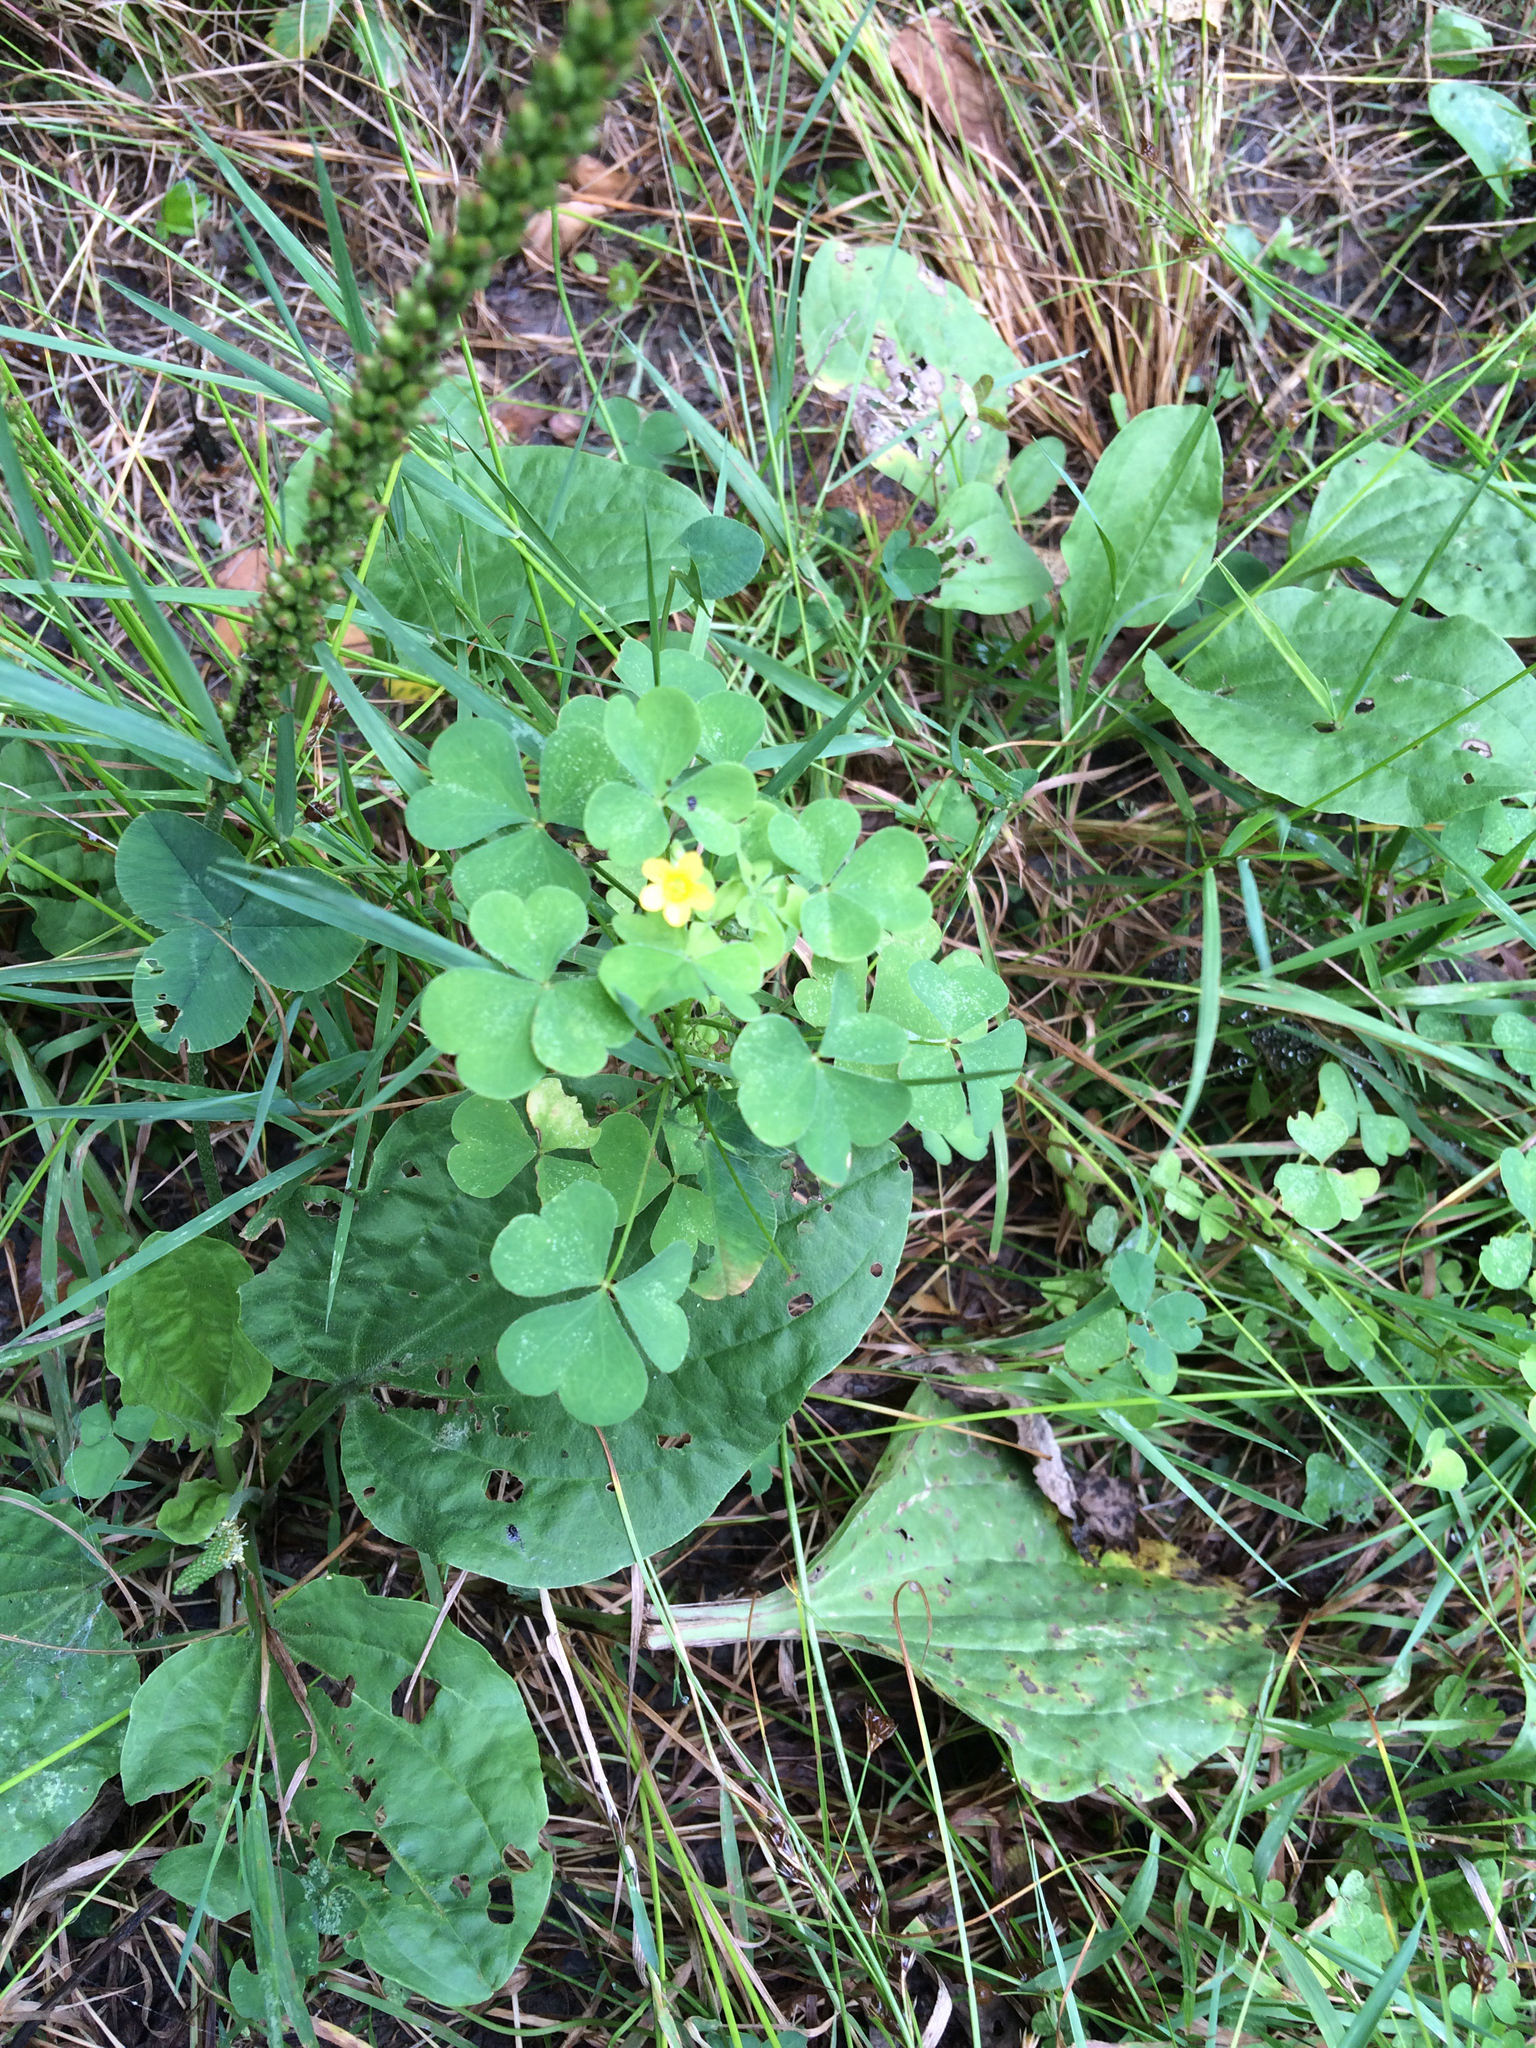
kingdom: Plantae
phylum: Tracheophyta
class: Magnoliopsida
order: Oxalidales
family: Oxalidaceae
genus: Oxalis
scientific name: Oxalis stricta
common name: Upright yellow-sorrel
